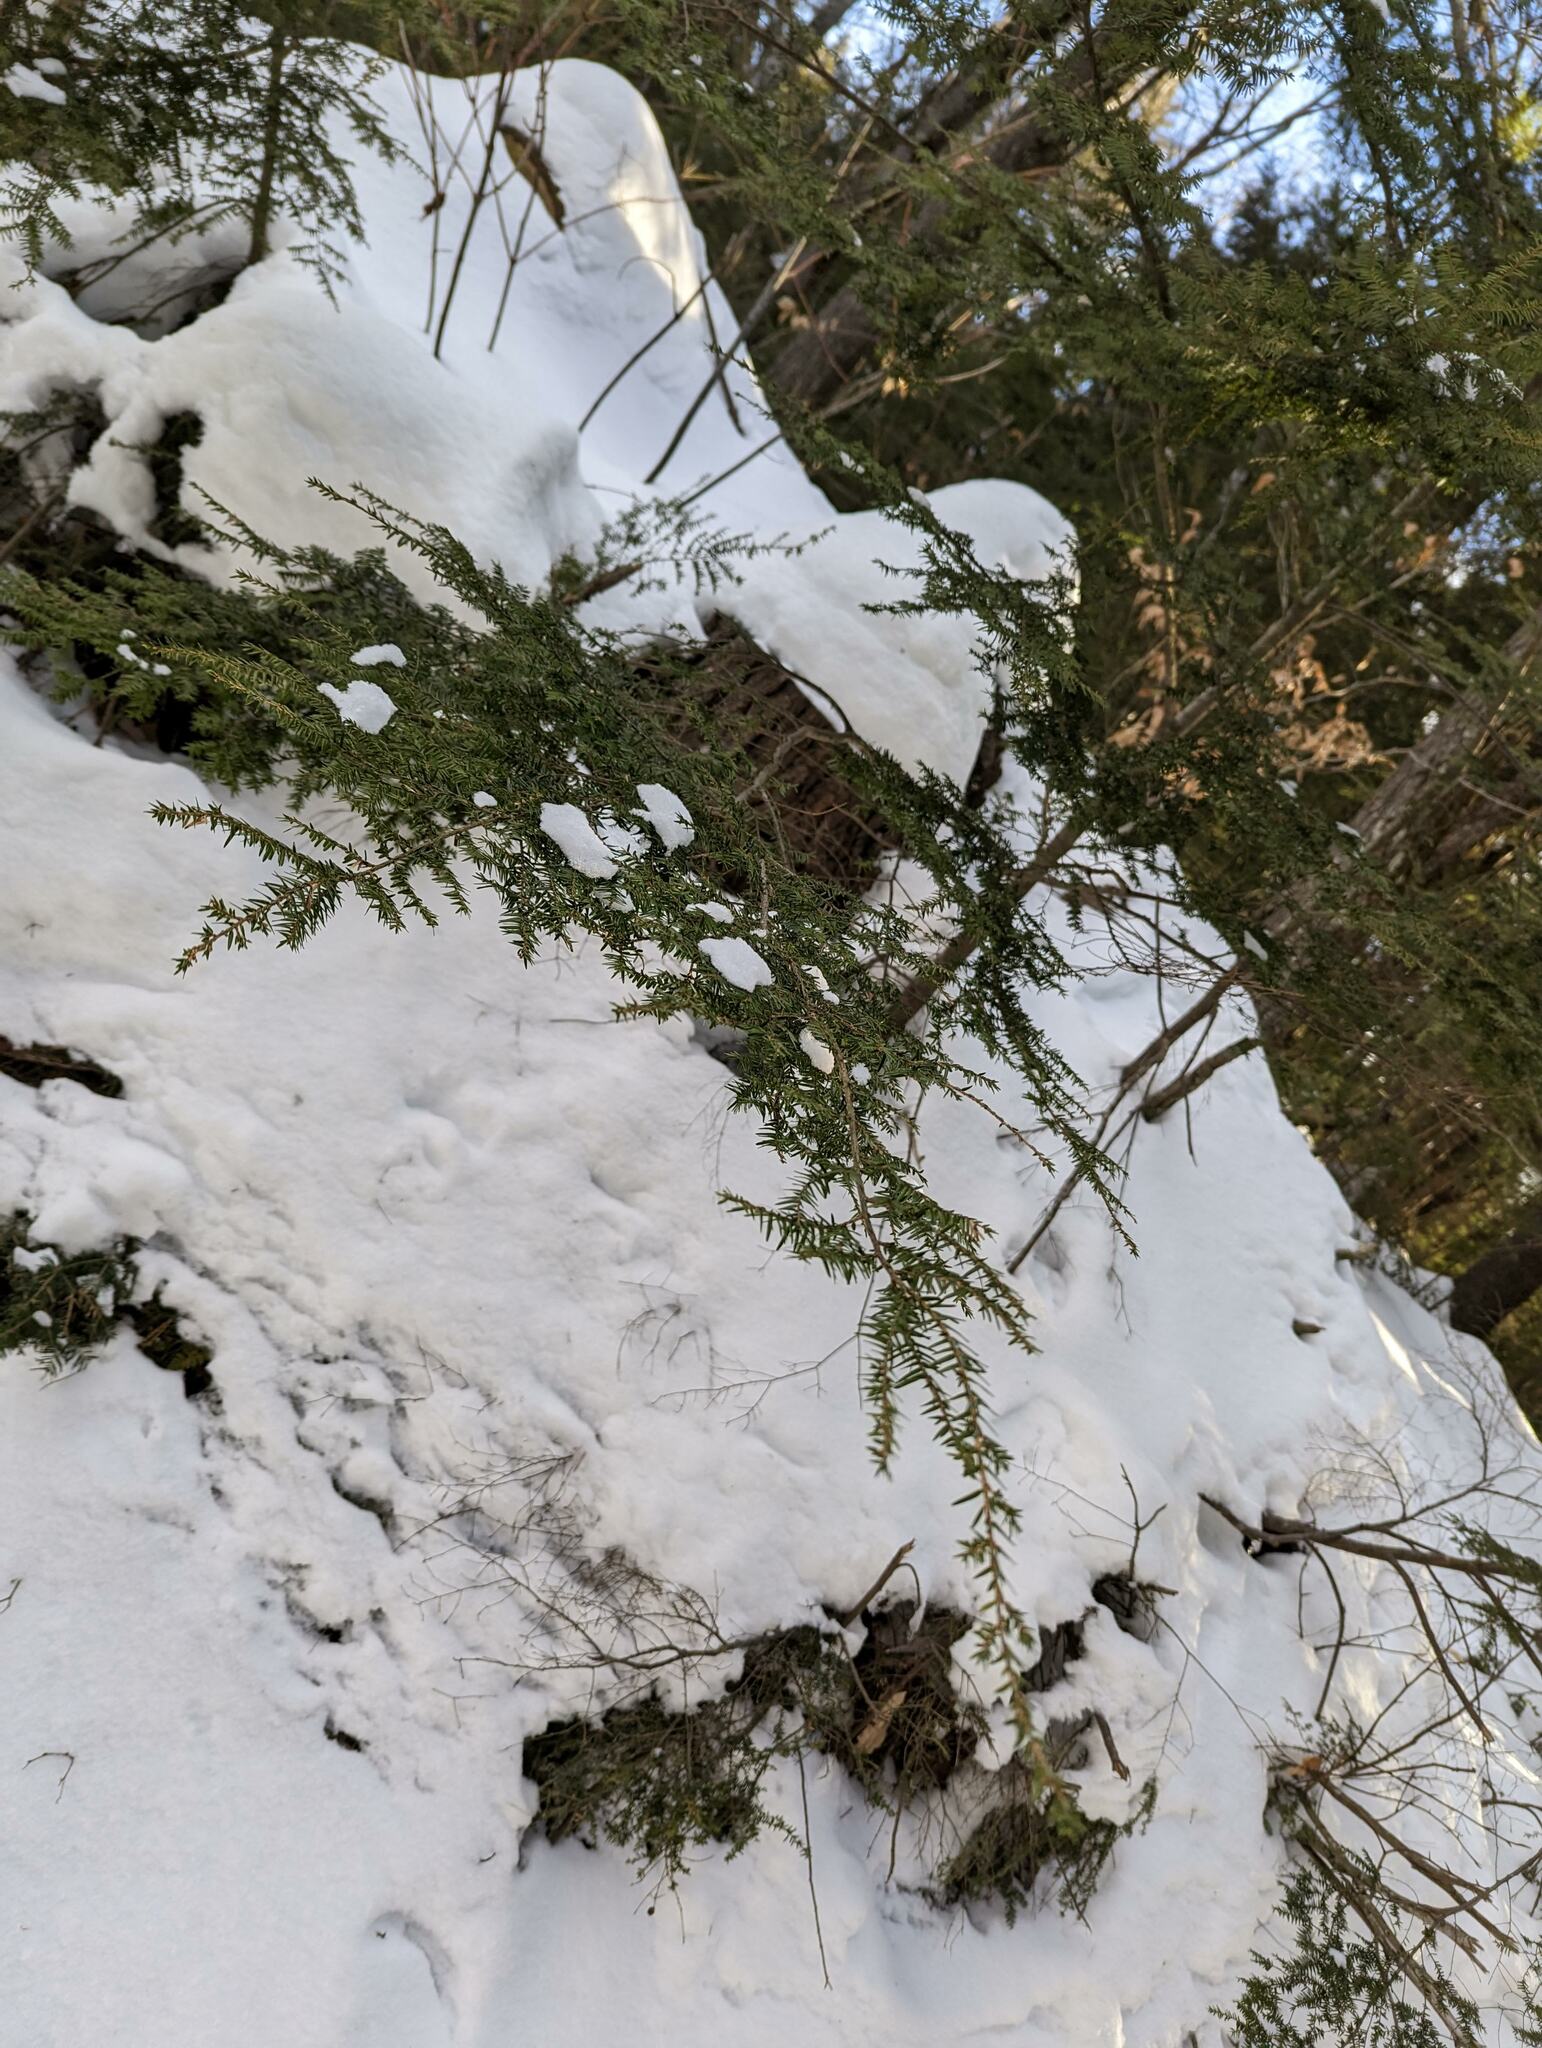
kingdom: Plantae
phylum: Tracheophyta
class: Pinopsida
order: Pinales
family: Pinaceae
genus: Tsuga
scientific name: Tsuga canadensis
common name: Eastern hemlock
